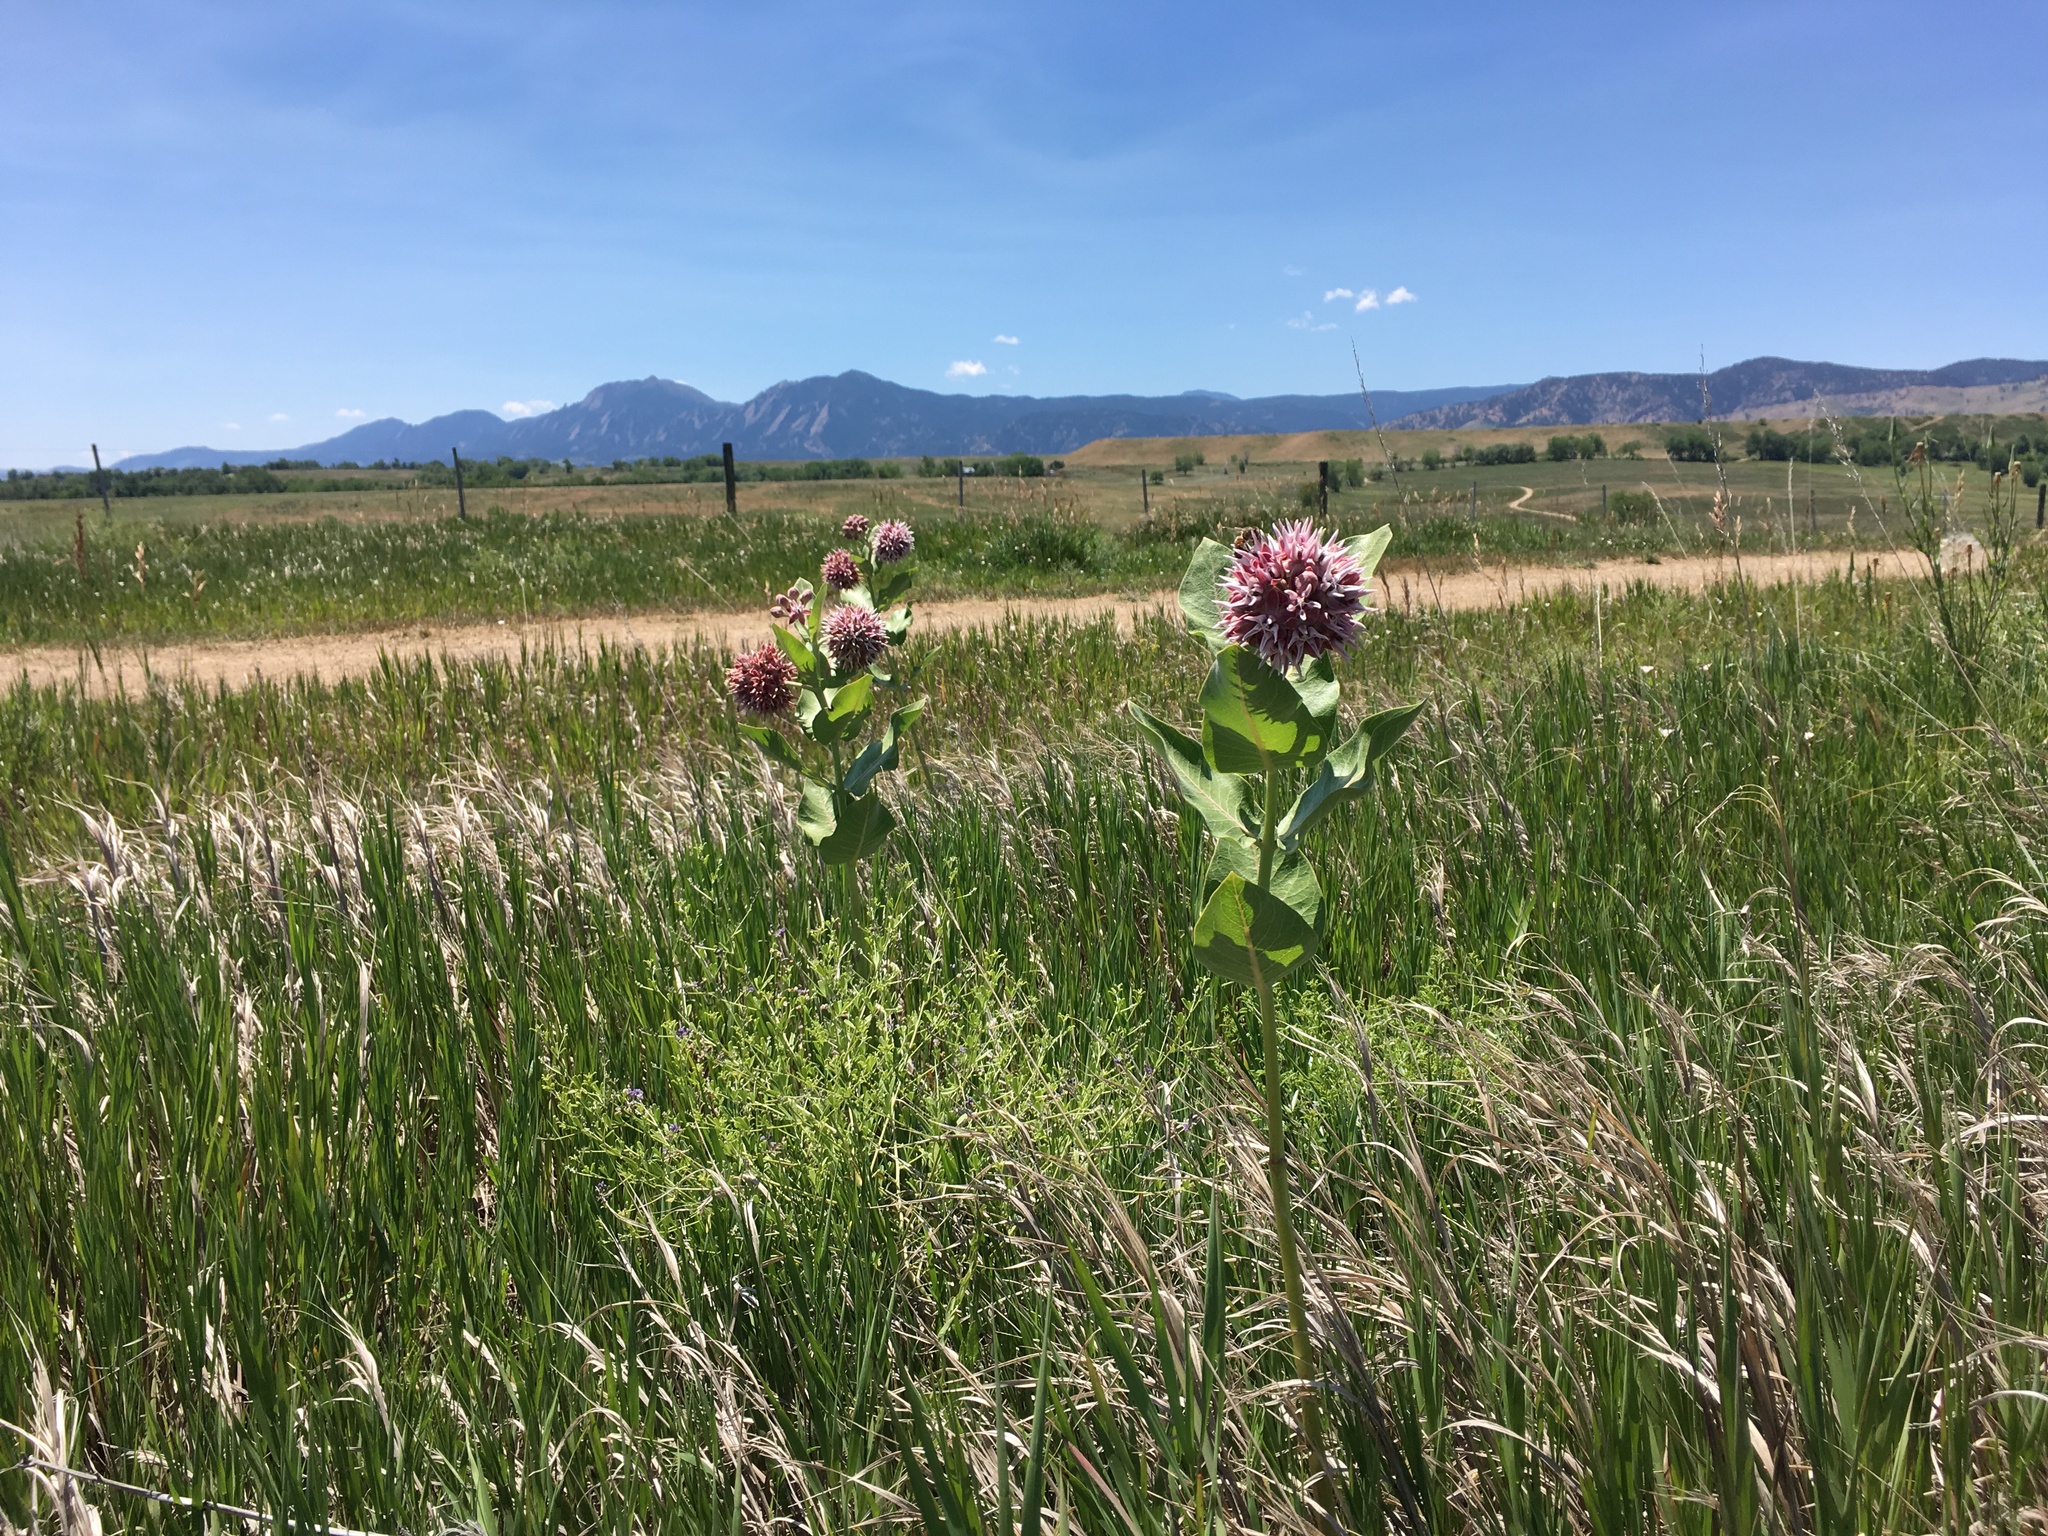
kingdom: Plantae
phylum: Tracheophyta
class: Magnoliopsida
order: Gentianales
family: Apocynaceae
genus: Asclepias
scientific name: Asclepias speciosa
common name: Showy milkweed
